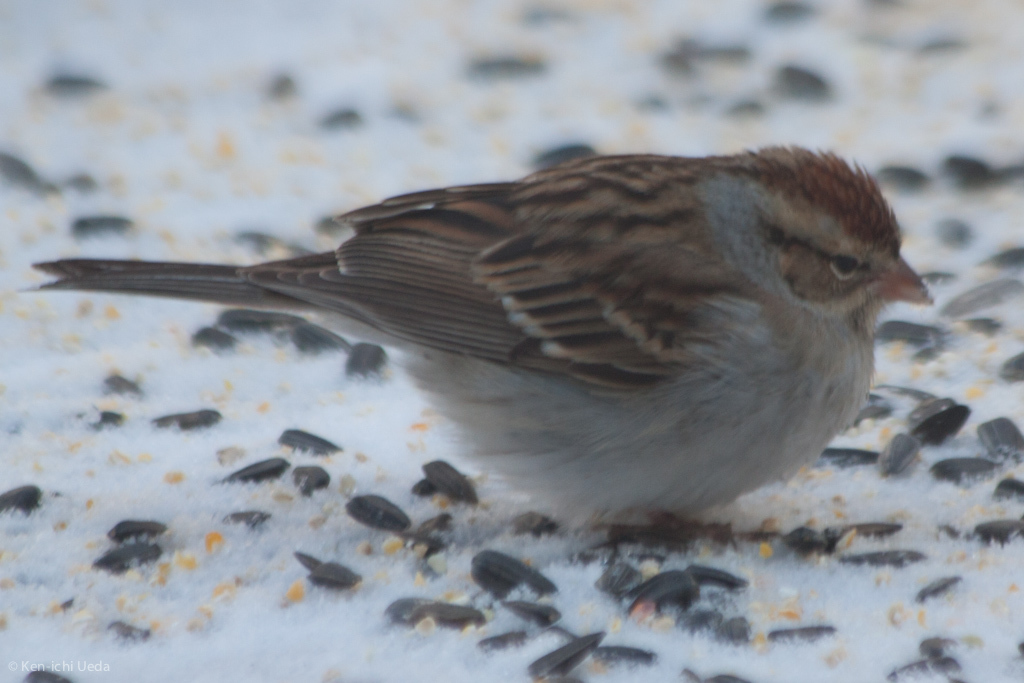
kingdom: Animalia
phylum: Chordata
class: Aves
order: Passeriformes
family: Passerellidae
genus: Spizella
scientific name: Spizella passerina
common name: Chipping sparrow
